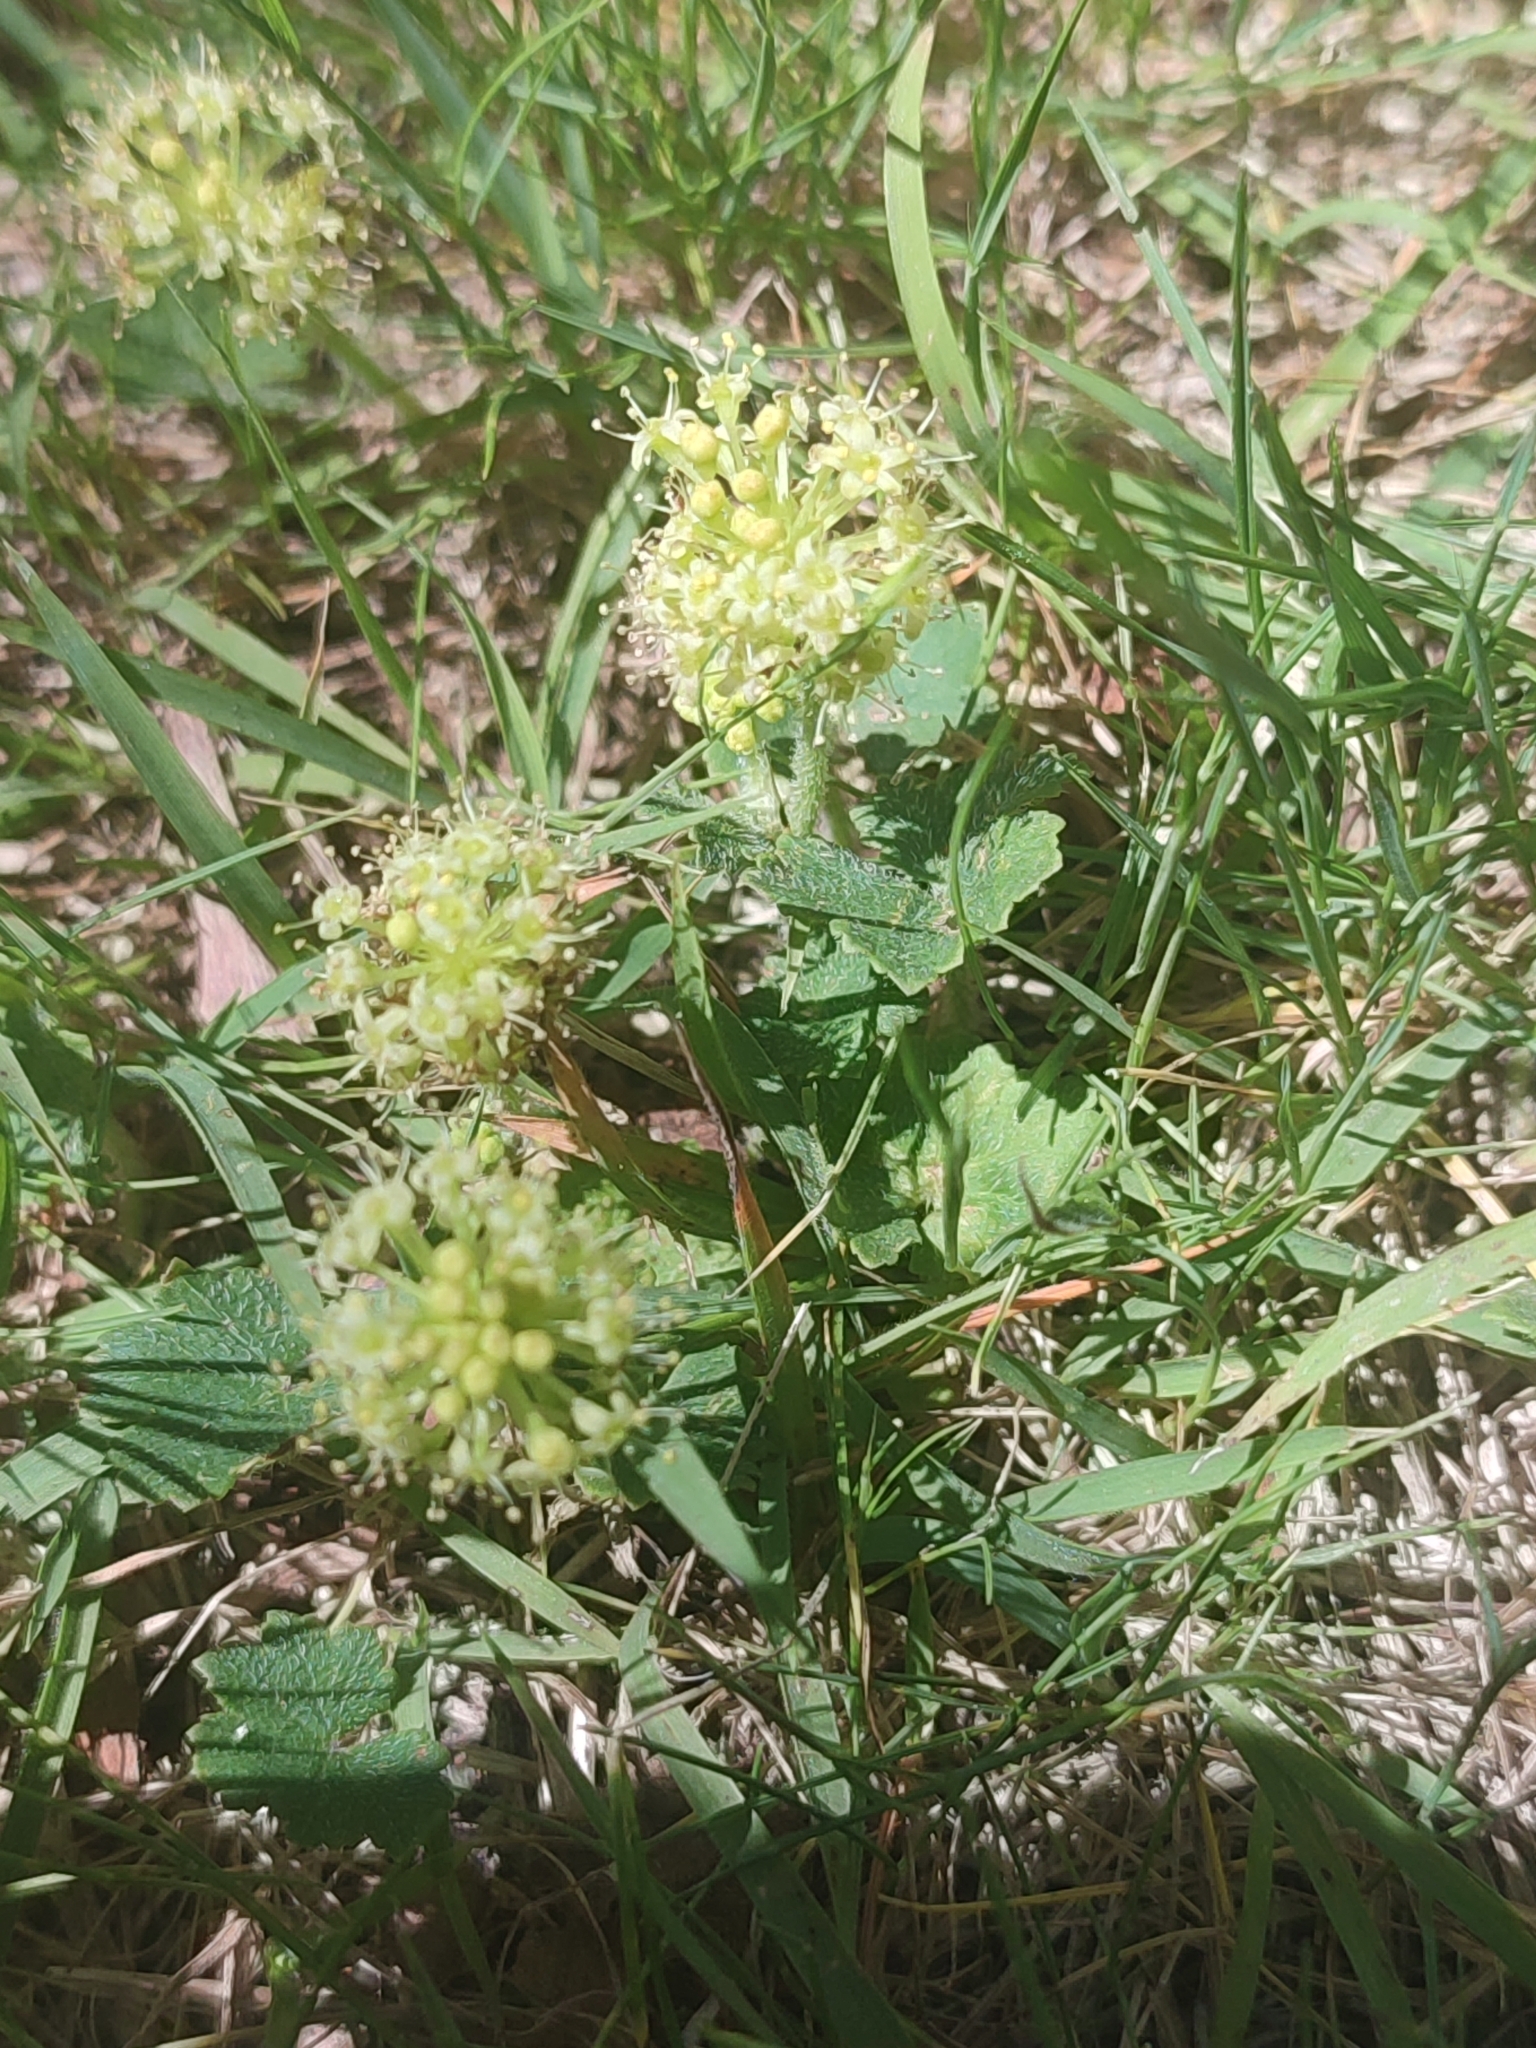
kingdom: Plantae
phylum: Tracheophyta
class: Magnoliopsida
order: Apiales
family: Araliaceae
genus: Hydrocotyle
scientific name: Hydrocotyle laxiflora
